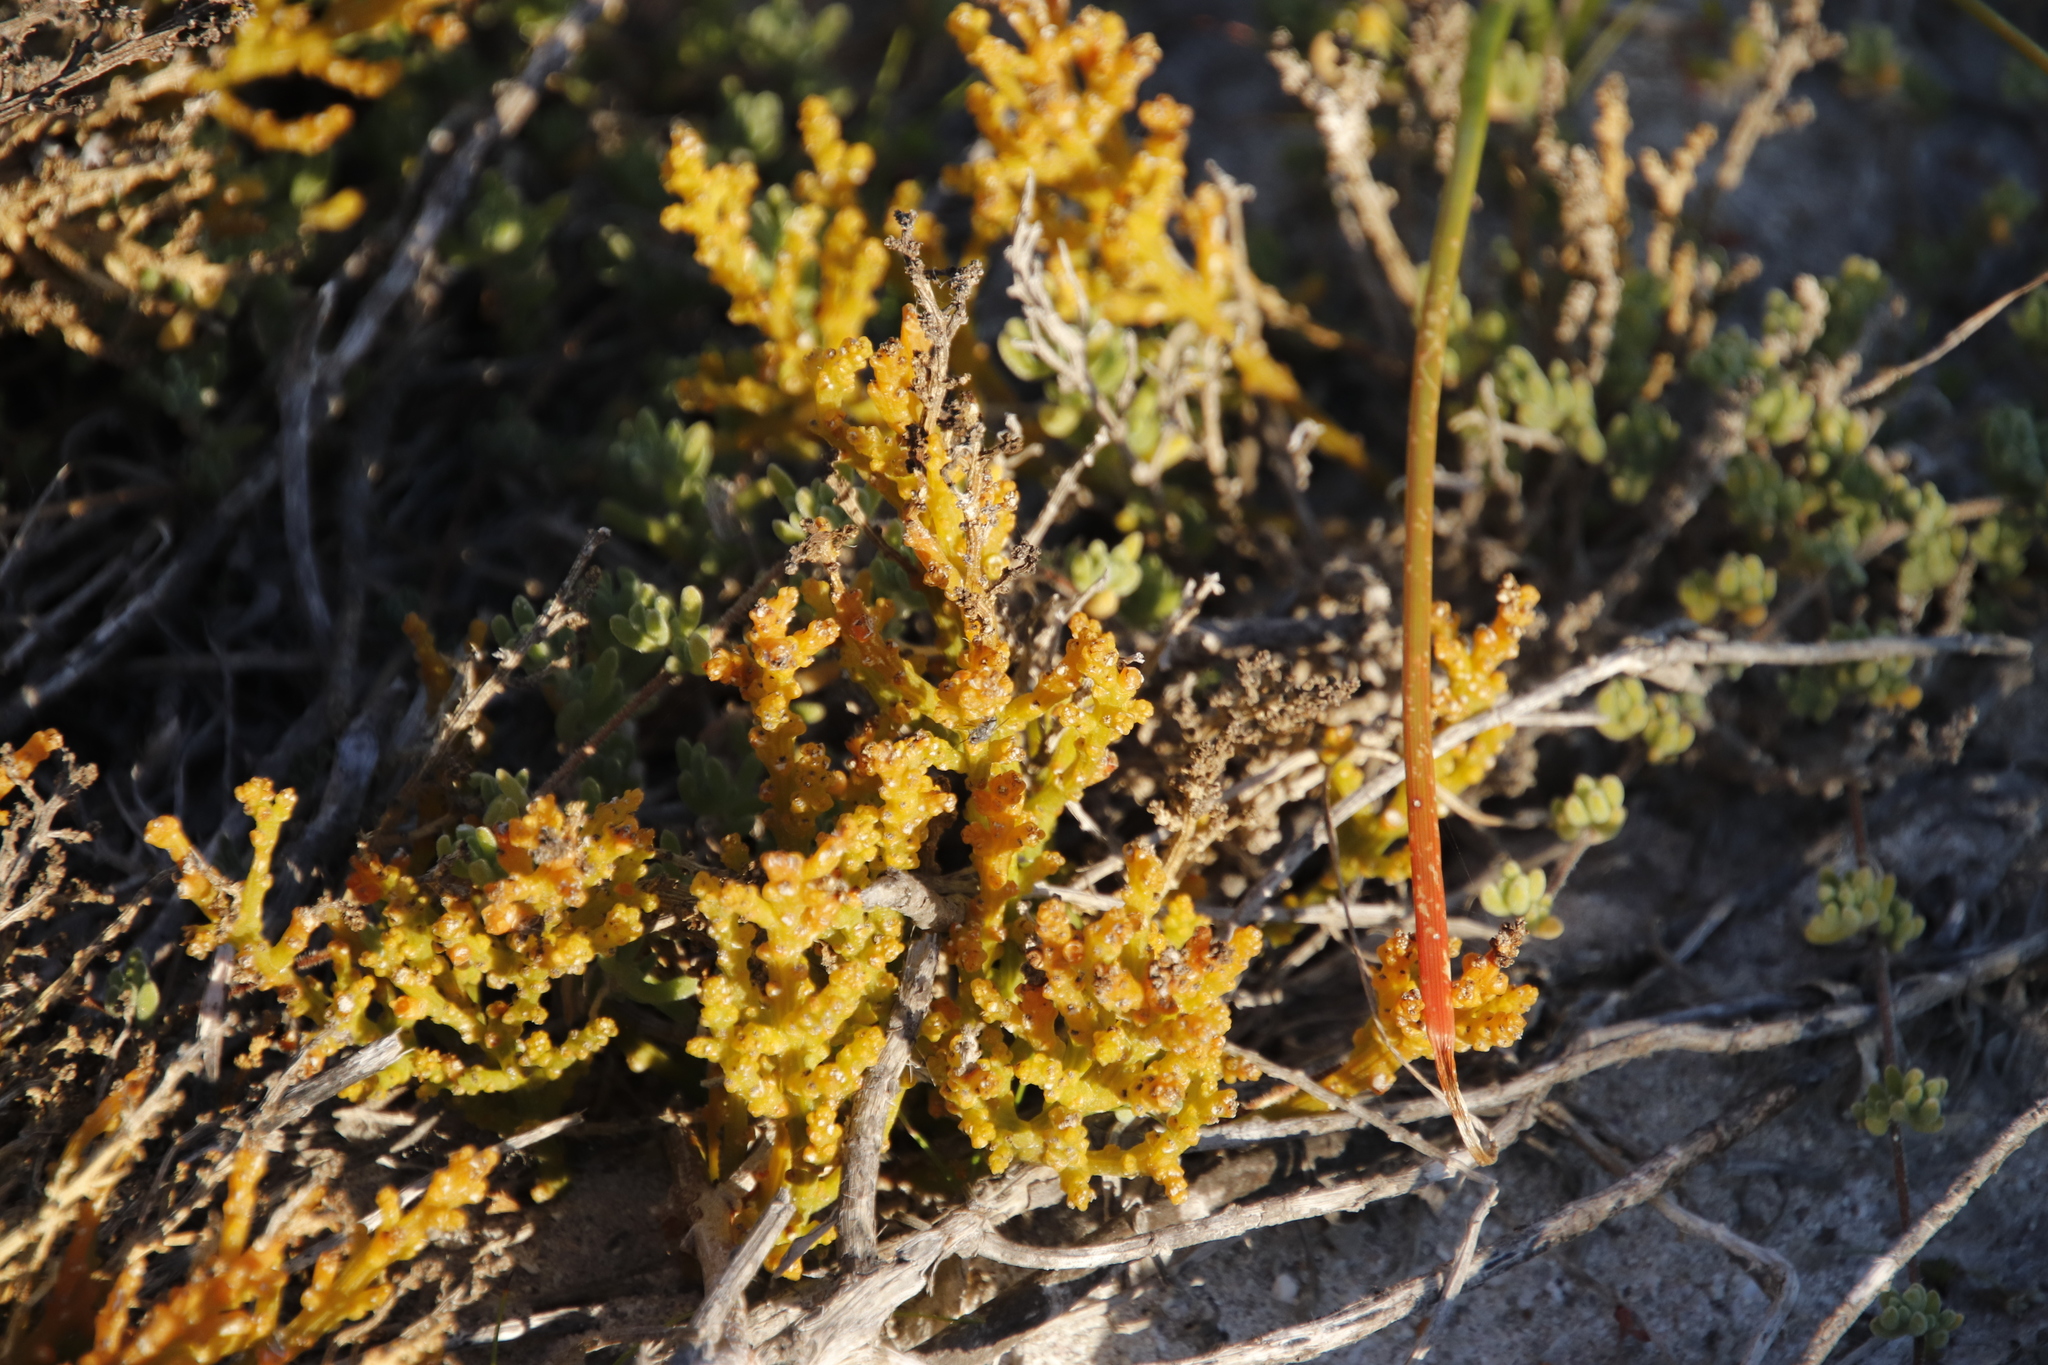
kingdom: Plantae
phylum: Tracheophyta
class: Magnoliopsida
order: Santalales
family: Thesiaceae
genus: Thesium
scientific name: Thesium fragile
